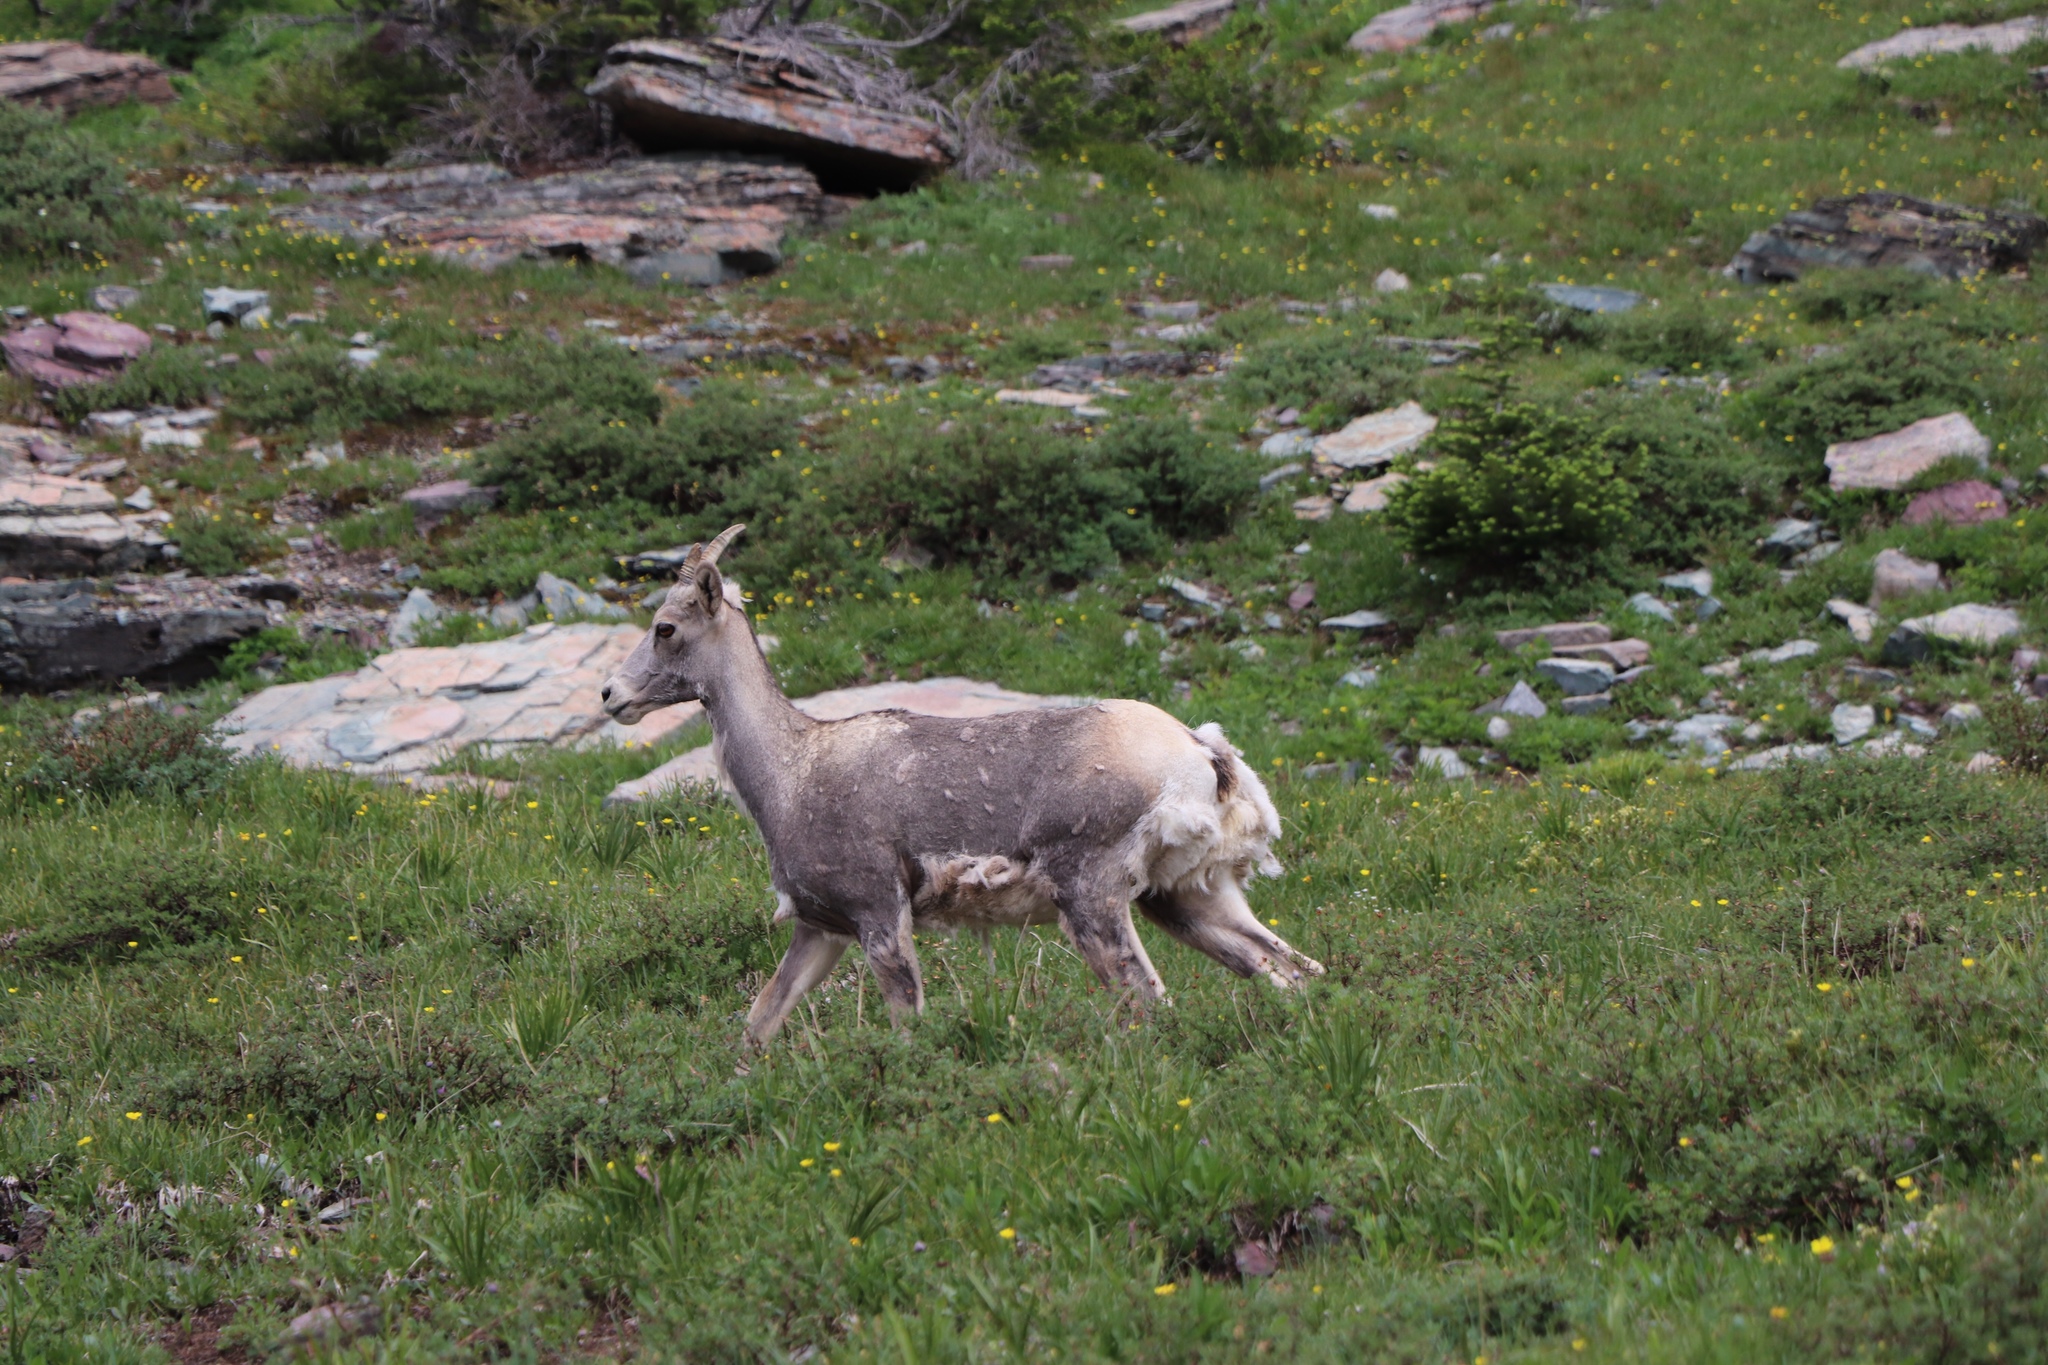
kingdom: Animalia
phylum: Chordata
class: Mammalia
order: Artiodactyla
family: Bovidae
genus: Ovis
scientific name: Ovis canadensis
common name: Bighorn sheep
